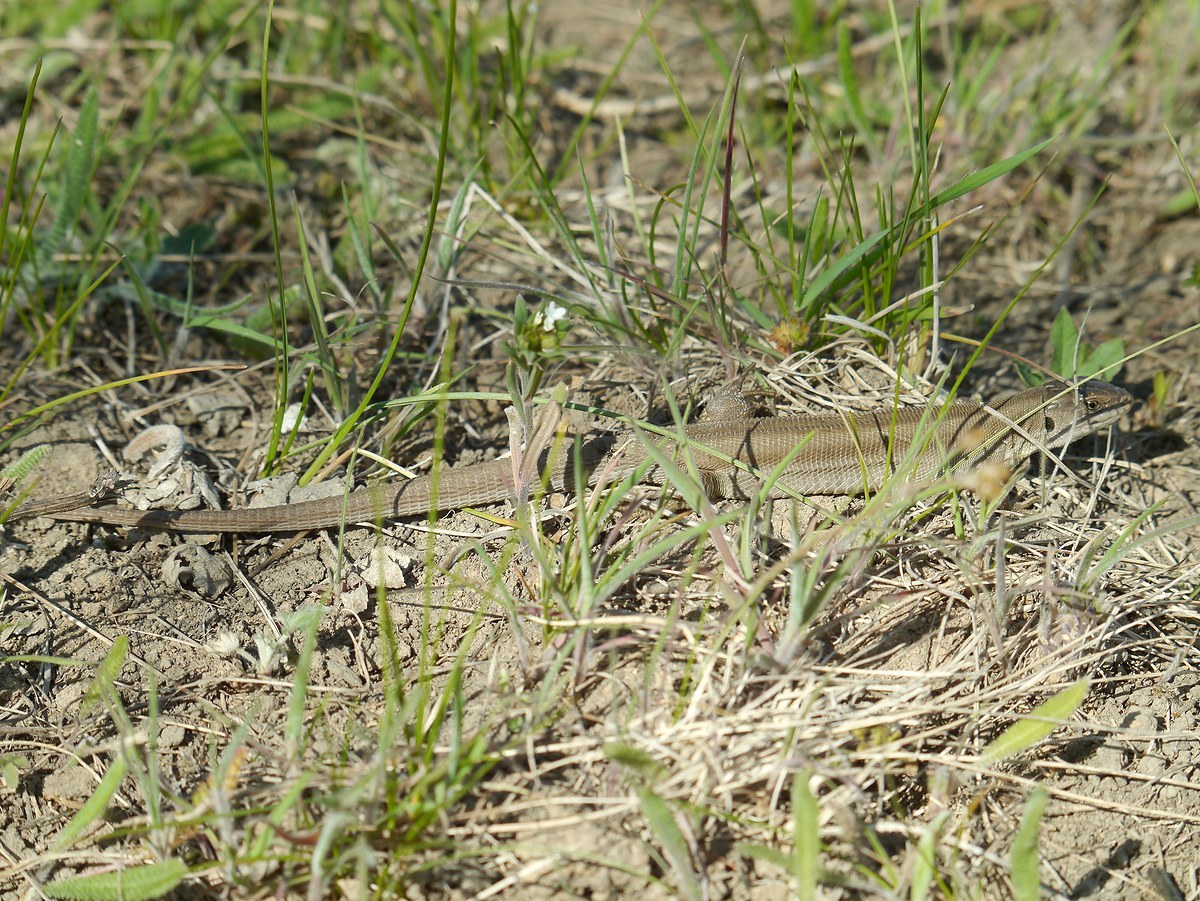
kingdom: Animalia
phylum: Chordata
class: Squamata
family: Lacertidae
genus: Lacerta
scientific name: Lacerta agilis
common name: Sand lizard
